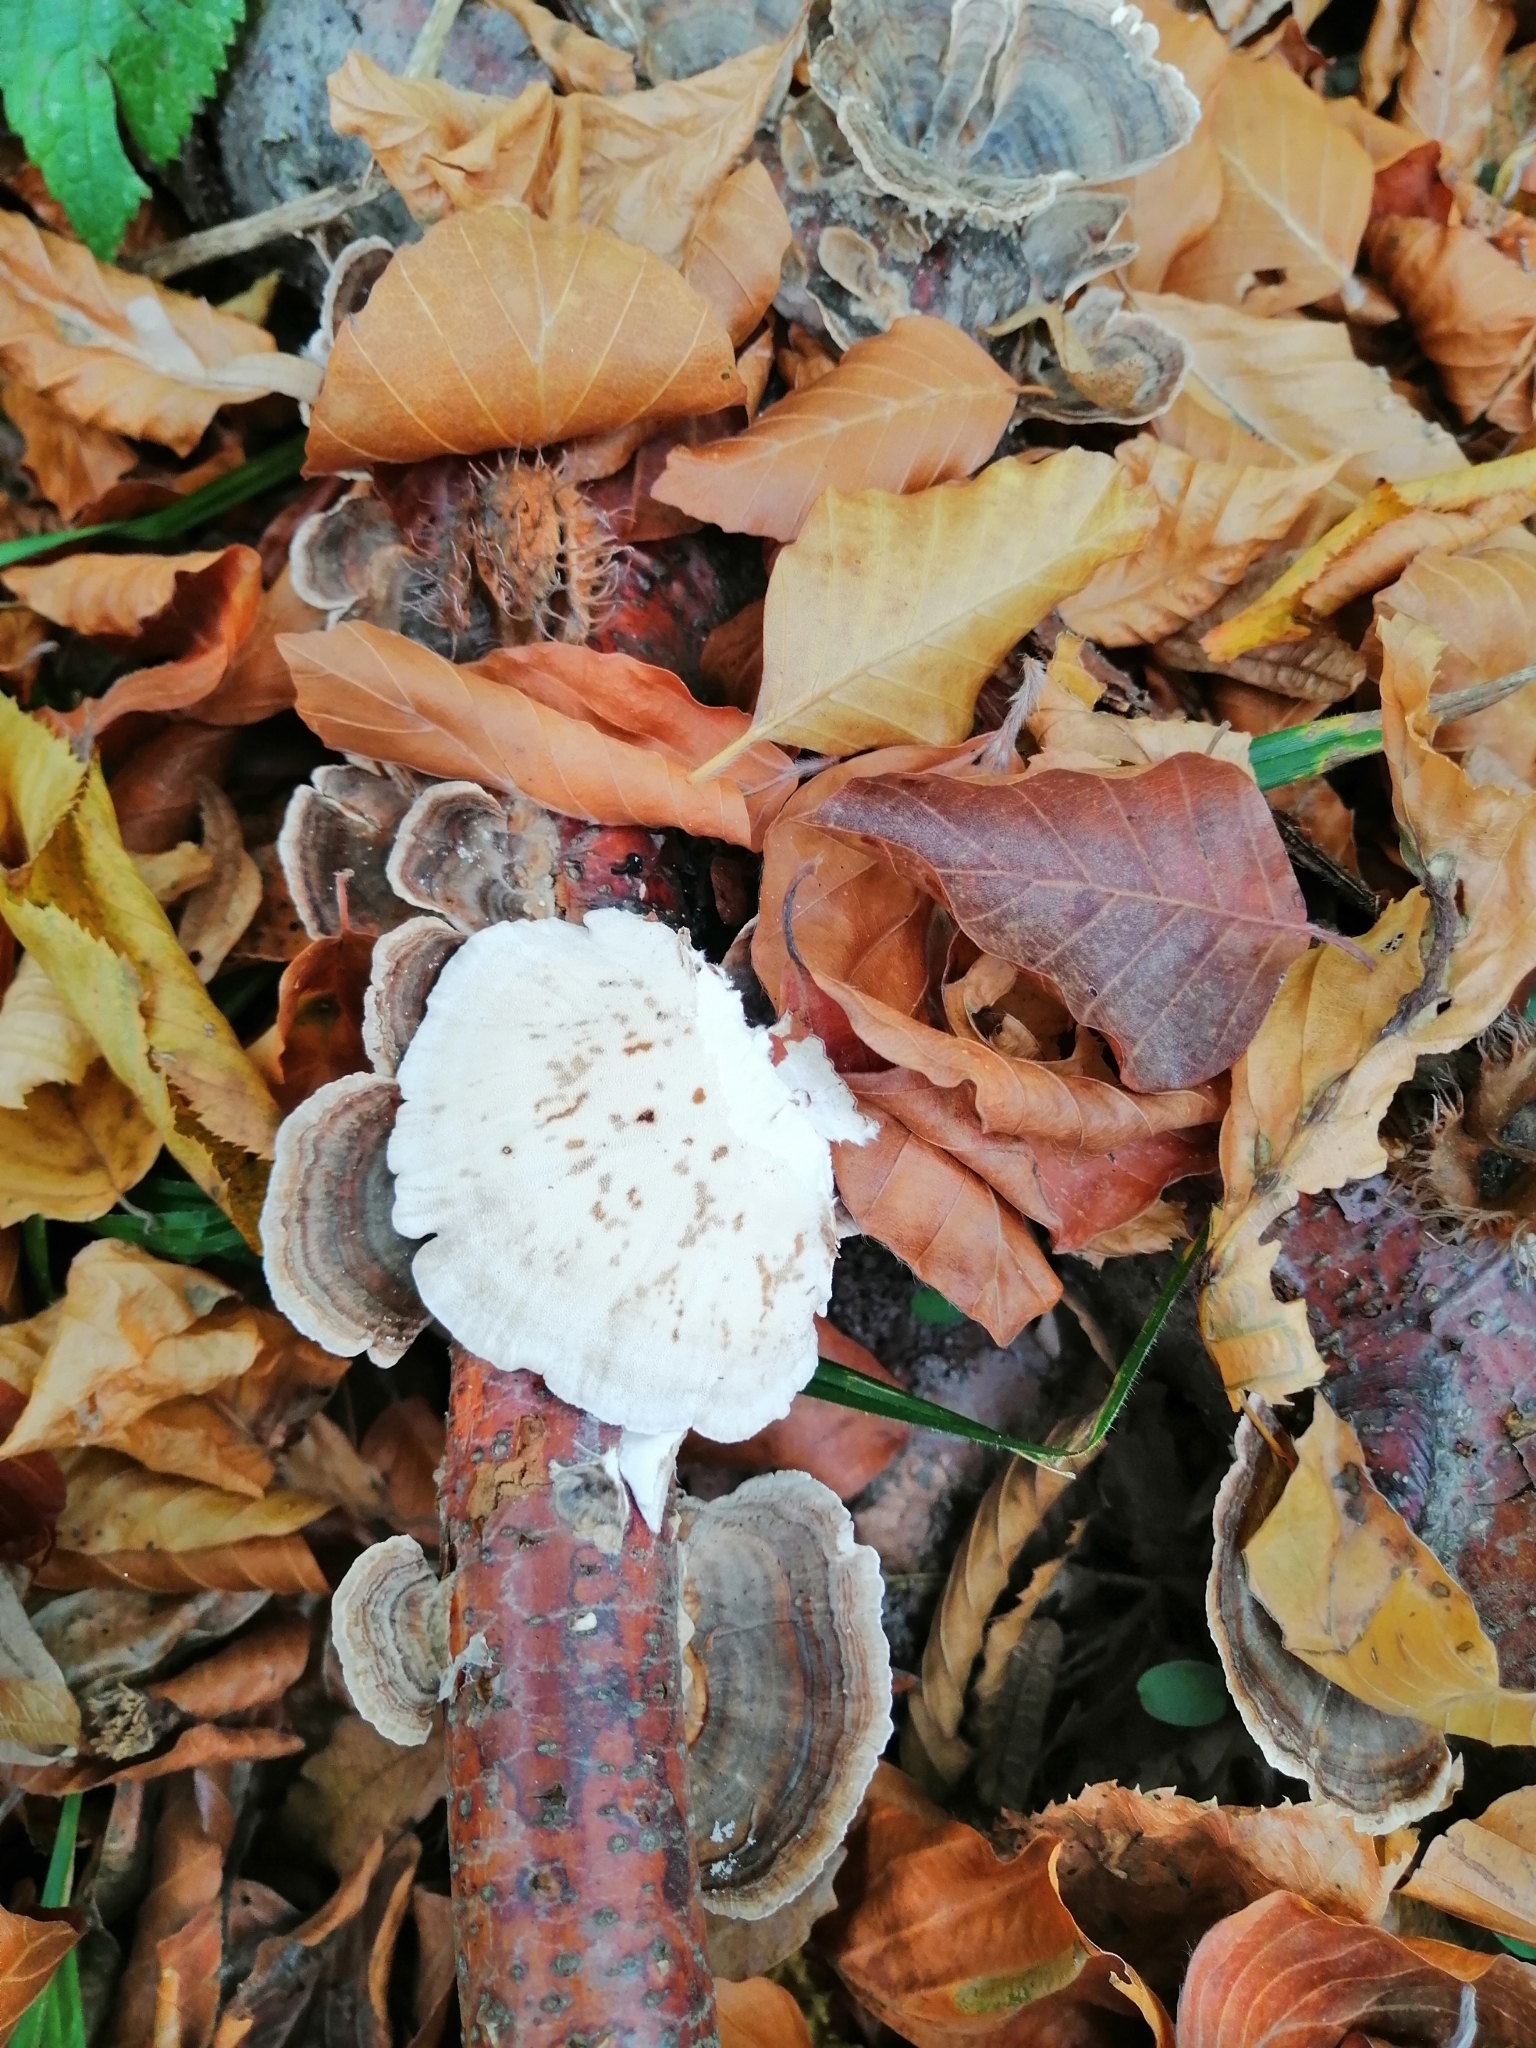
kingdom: Fungi
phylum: Basidiomycota
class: Agaricomycetes
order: Polyporales
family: Polyporaceae
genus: Trametes
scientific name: Trametes versicolor
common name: Turkeytail
